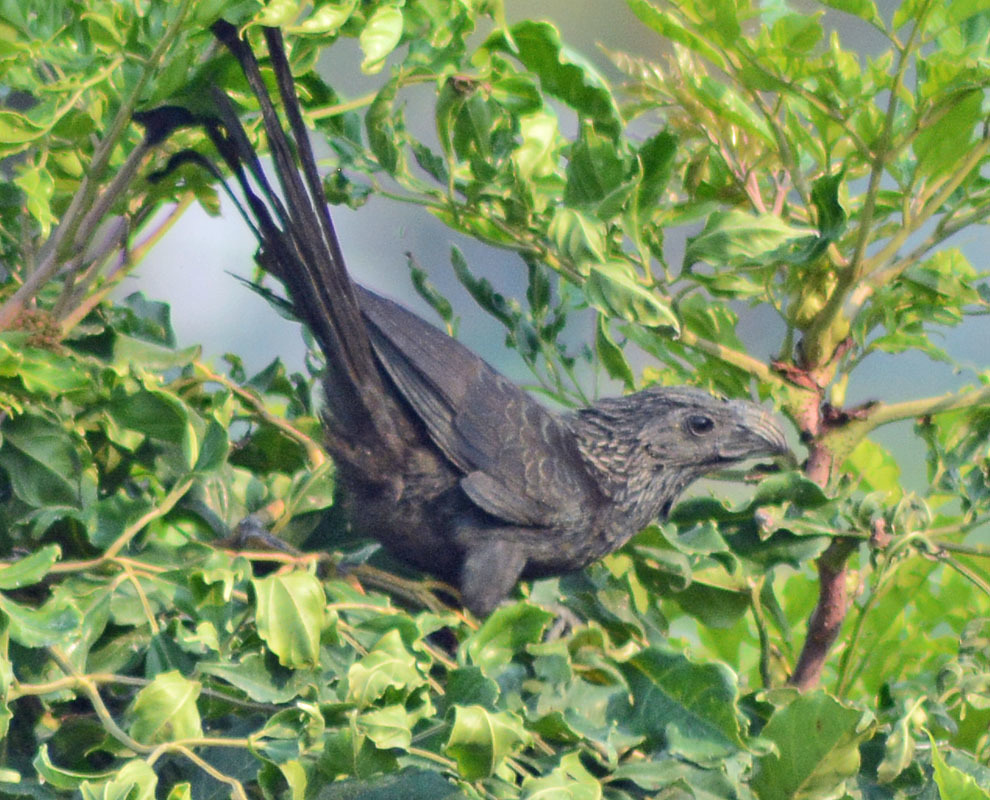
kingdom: Animalia
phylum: Chordata
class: Aves
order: Cuculiformes
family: Cuculidae
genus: Crotophaga
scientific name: Crotophaga sulcirostris
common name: Groove-billed ani
